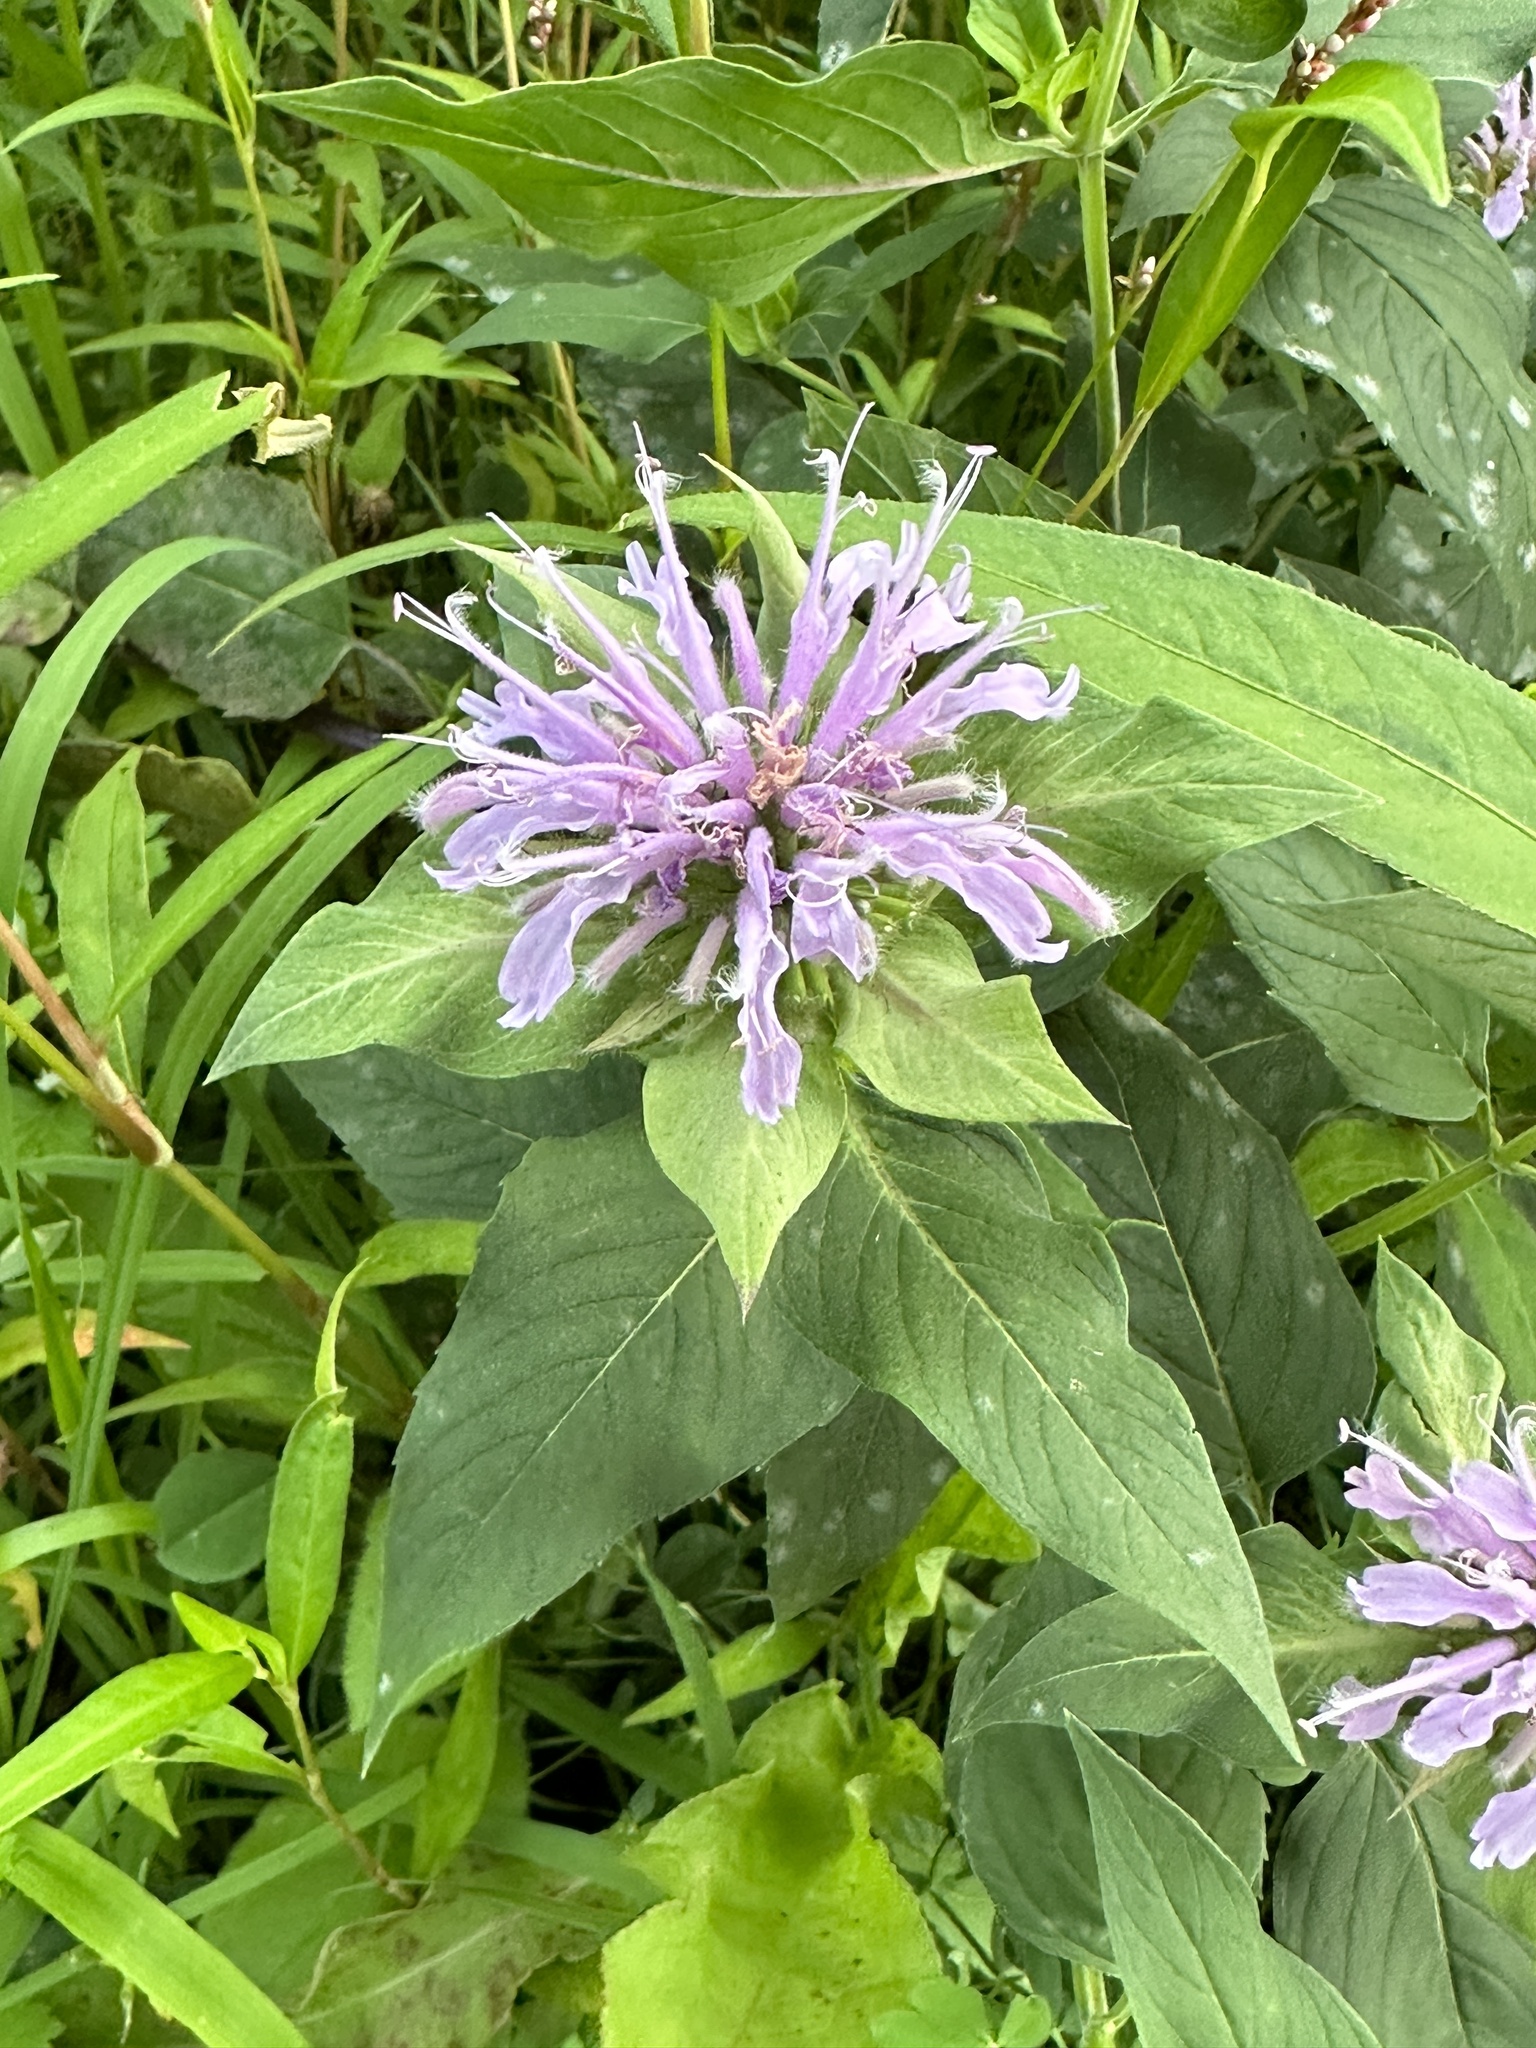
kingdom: Plantae
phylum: Tracheophyta
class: Magnoliopsida
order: Lamiales
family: Lamiaceae
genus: Monarda
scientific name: Monarda fistulosa
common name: Purple beebalm
